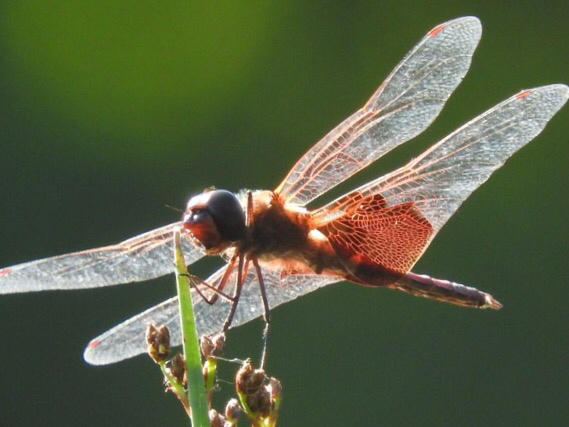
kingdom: Animalia
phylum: Arthropoda
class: Insecta
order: Odonata
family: Libellulidae
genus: Tramea
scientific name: Tramea carolina
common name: Carolina saddlebags
